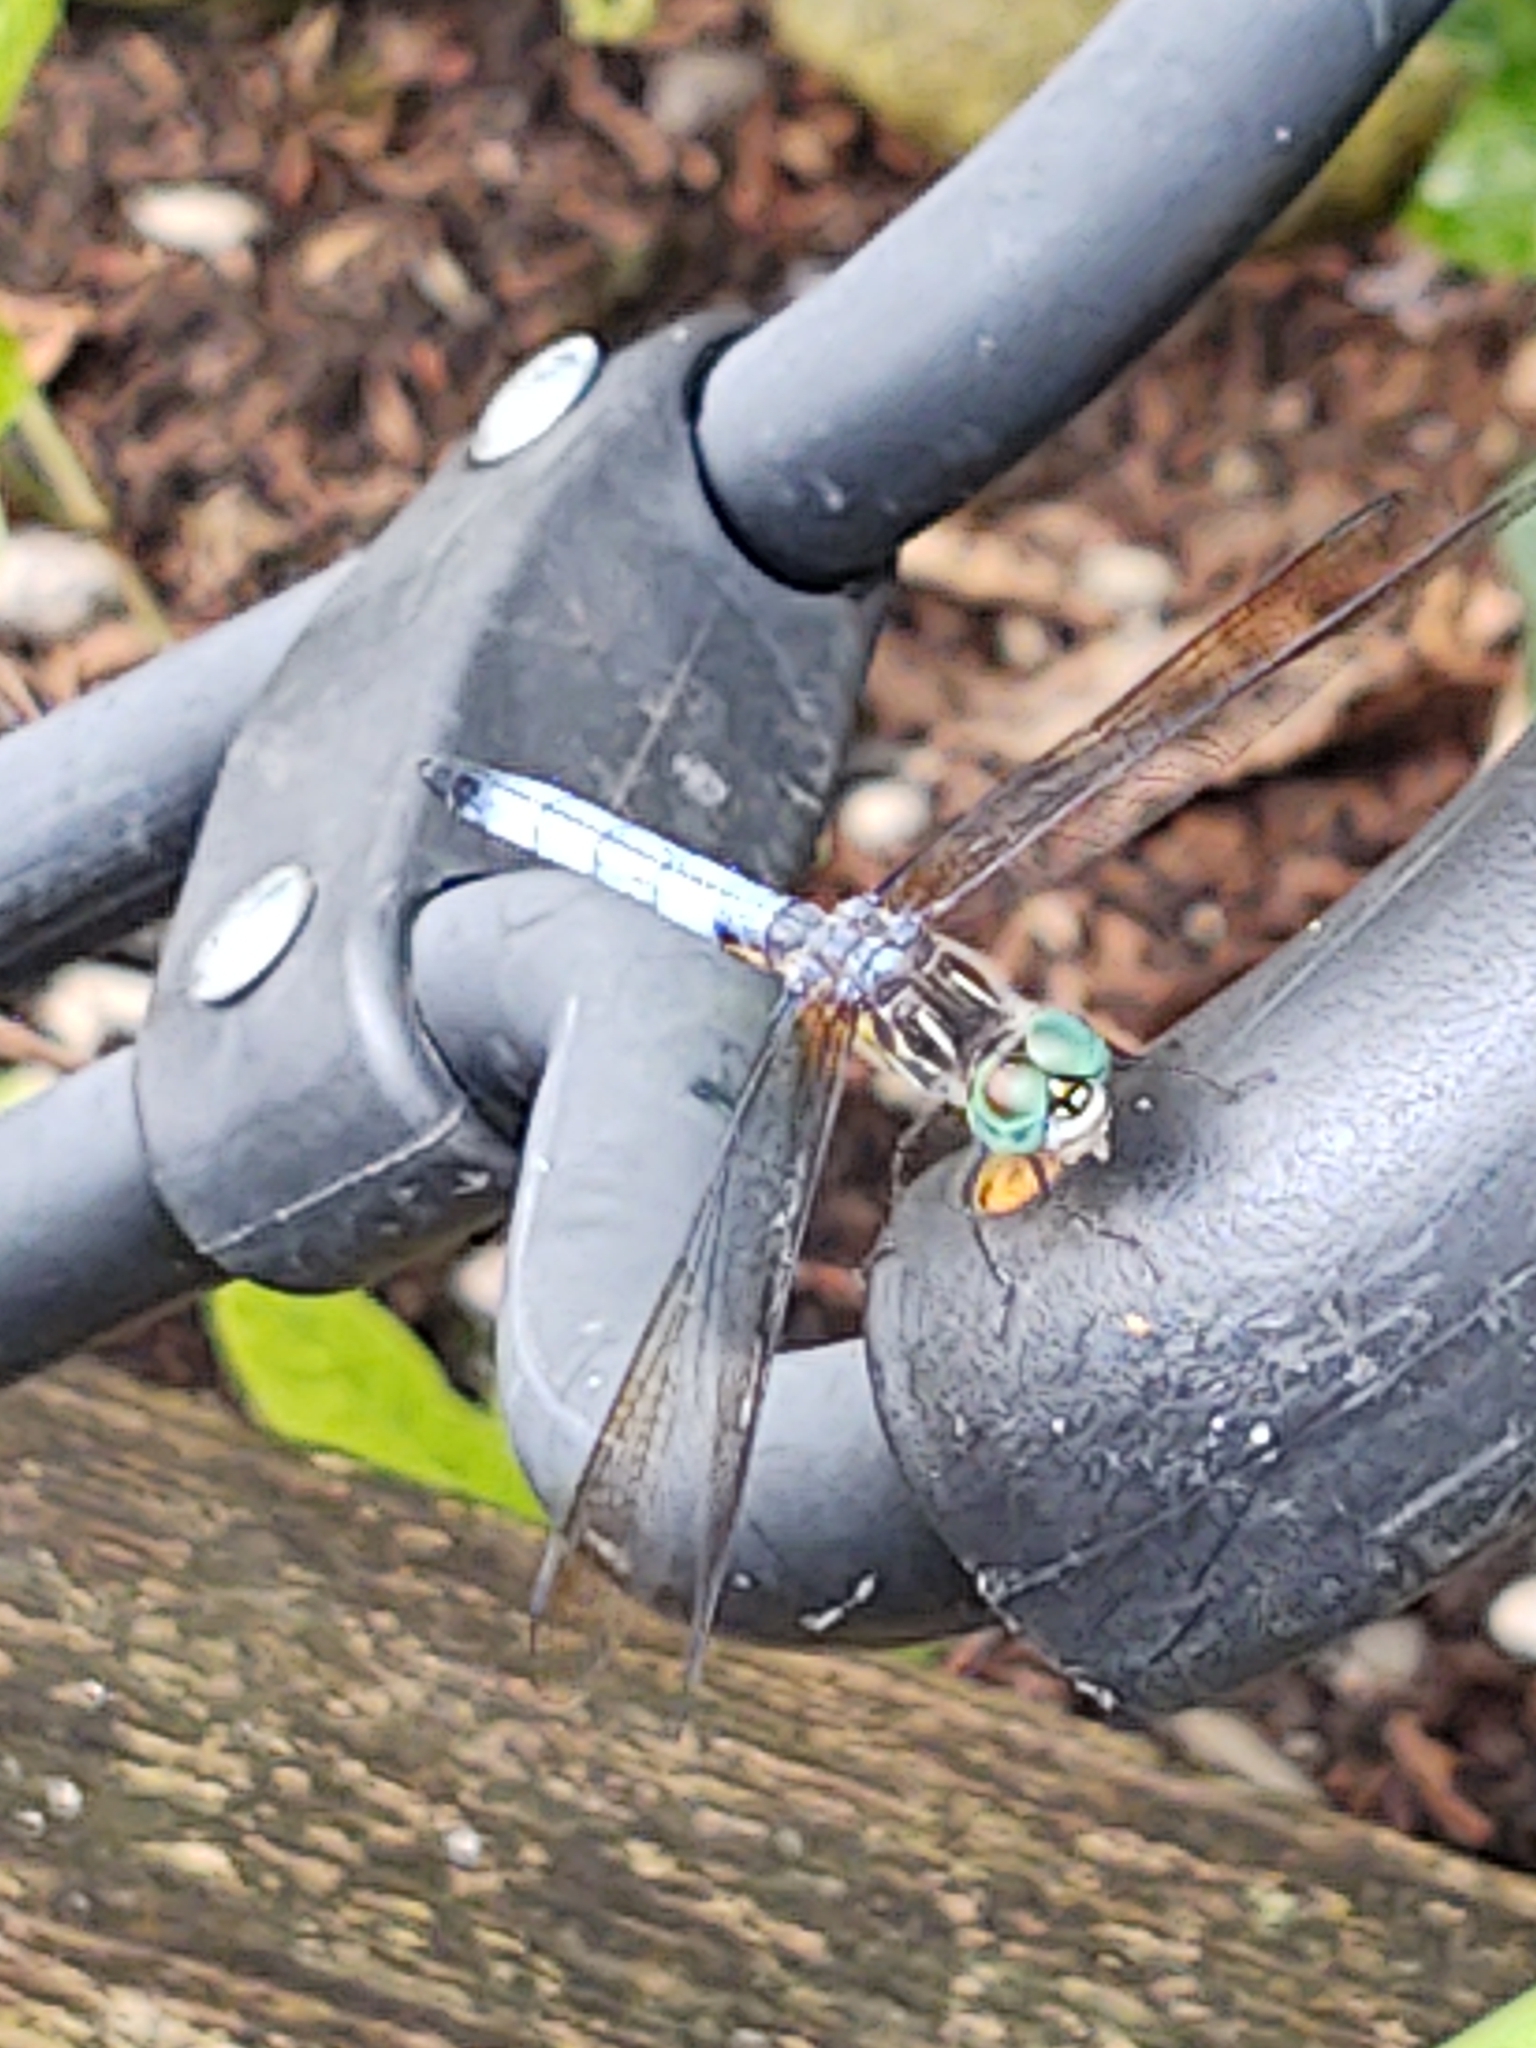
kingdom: Animalia
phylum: Arthropoda
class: Insecta
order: Odonata
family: Libellulidae
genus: Pachydiplax
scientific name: Pachydiplax longipennis
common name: Blue dasher
